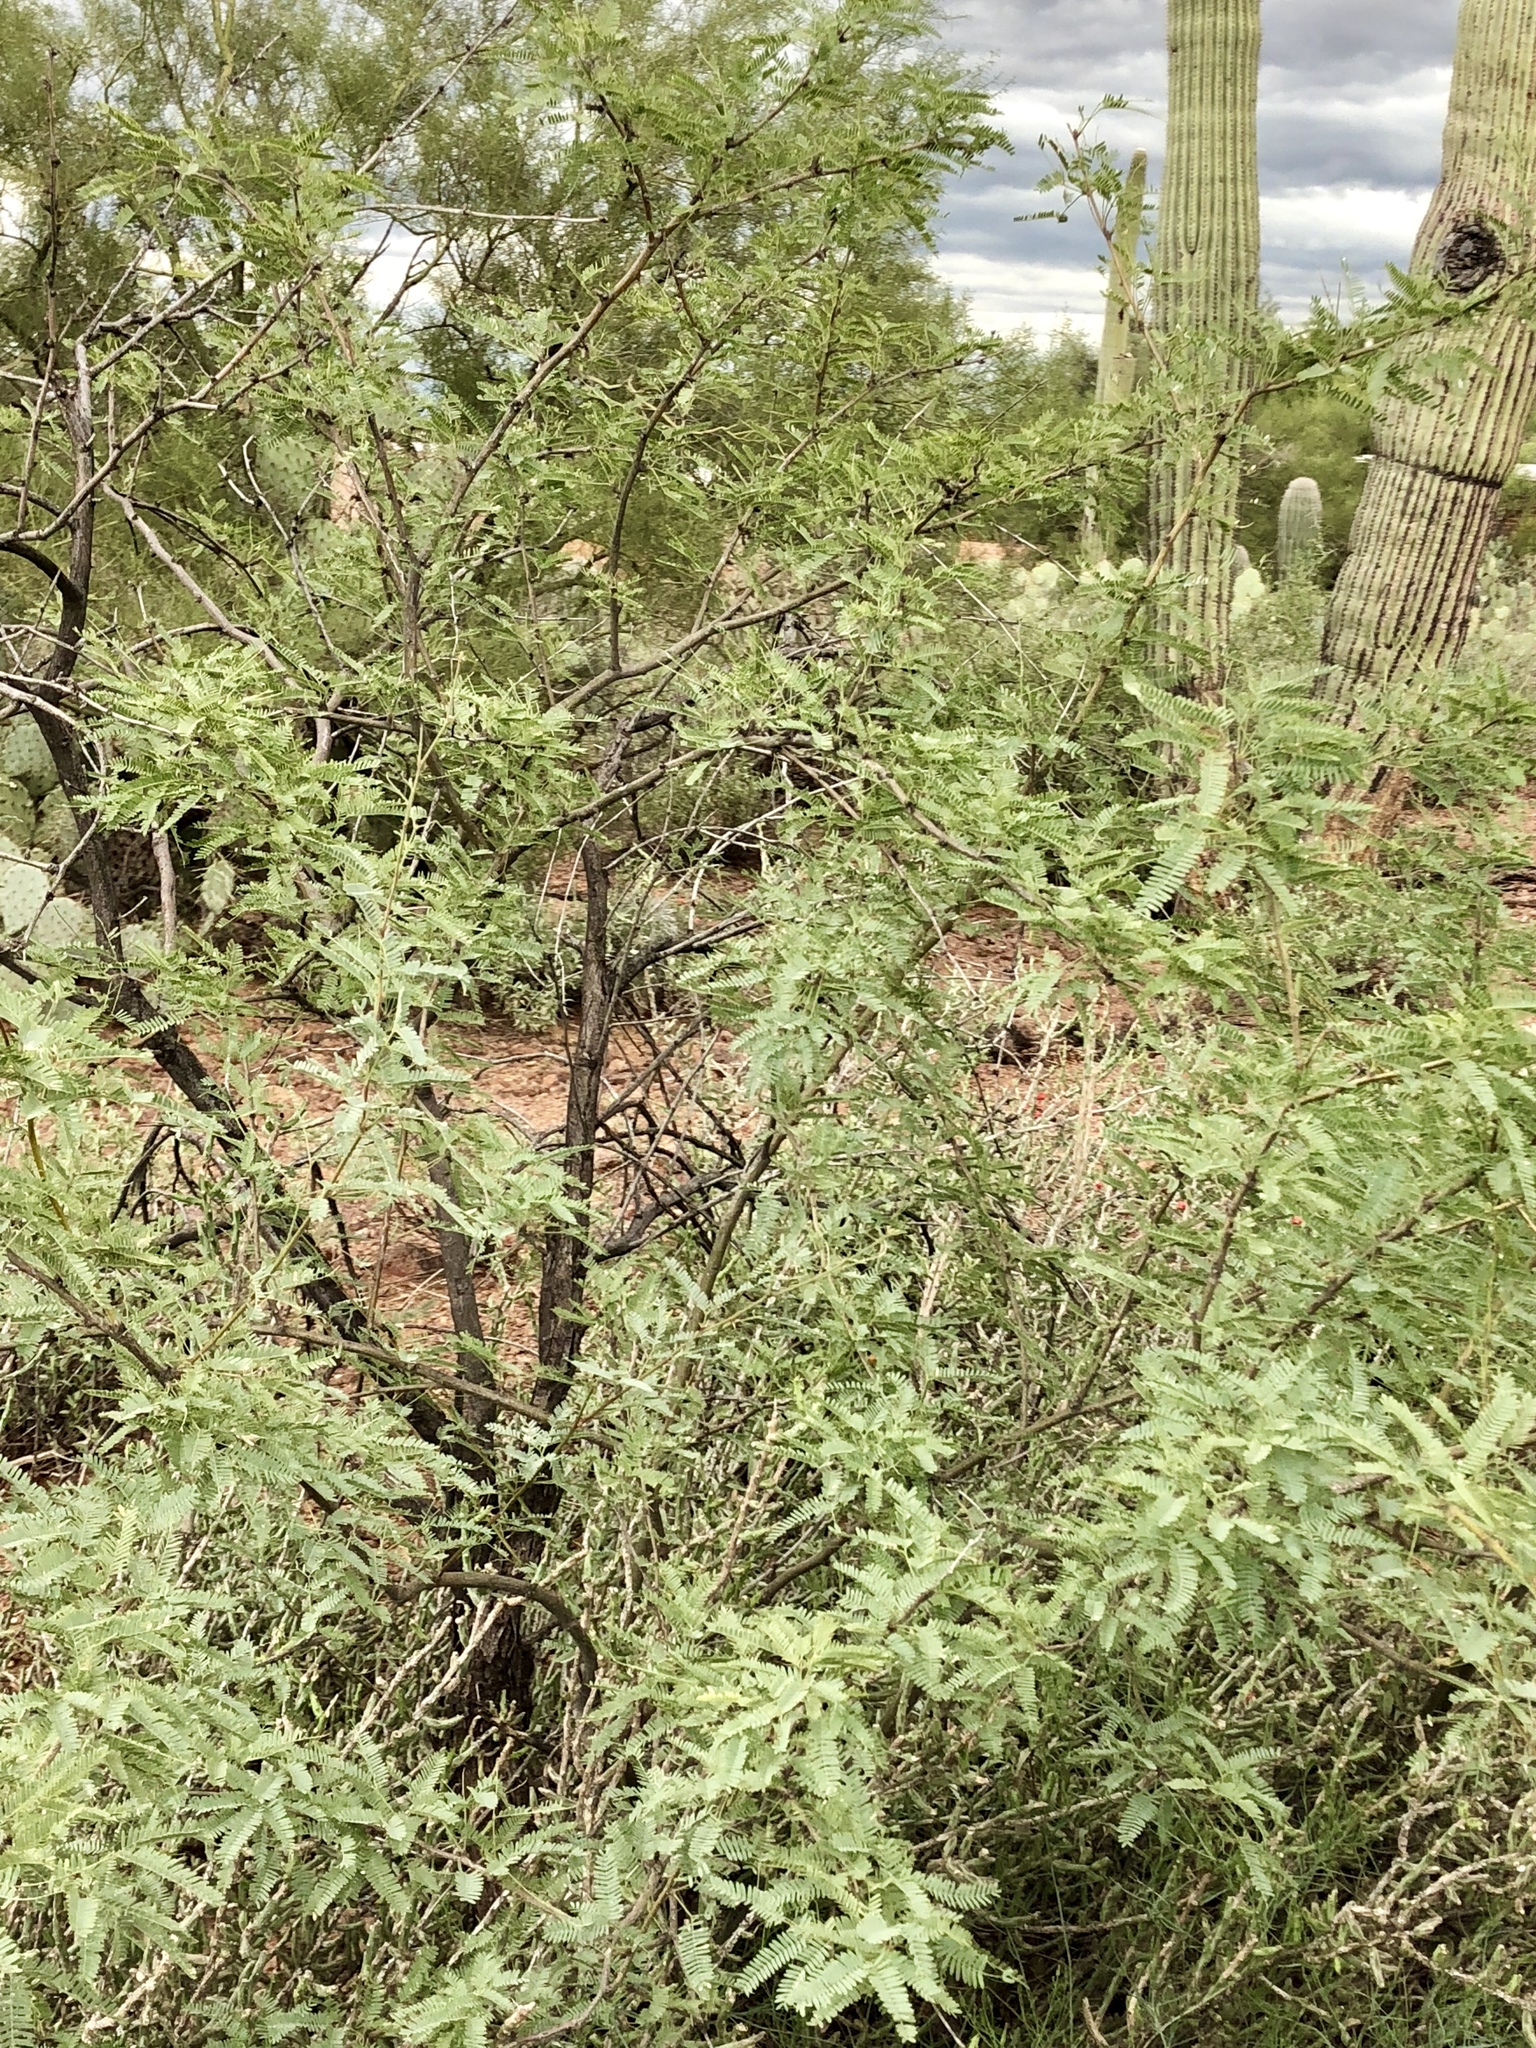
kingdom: Plantae
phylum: Tracheophyta
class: Magnoliopsida
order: Fabales
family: Fabaceae
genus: Prosopis
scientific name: Prosopis velutina
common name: Velvet mesquite
